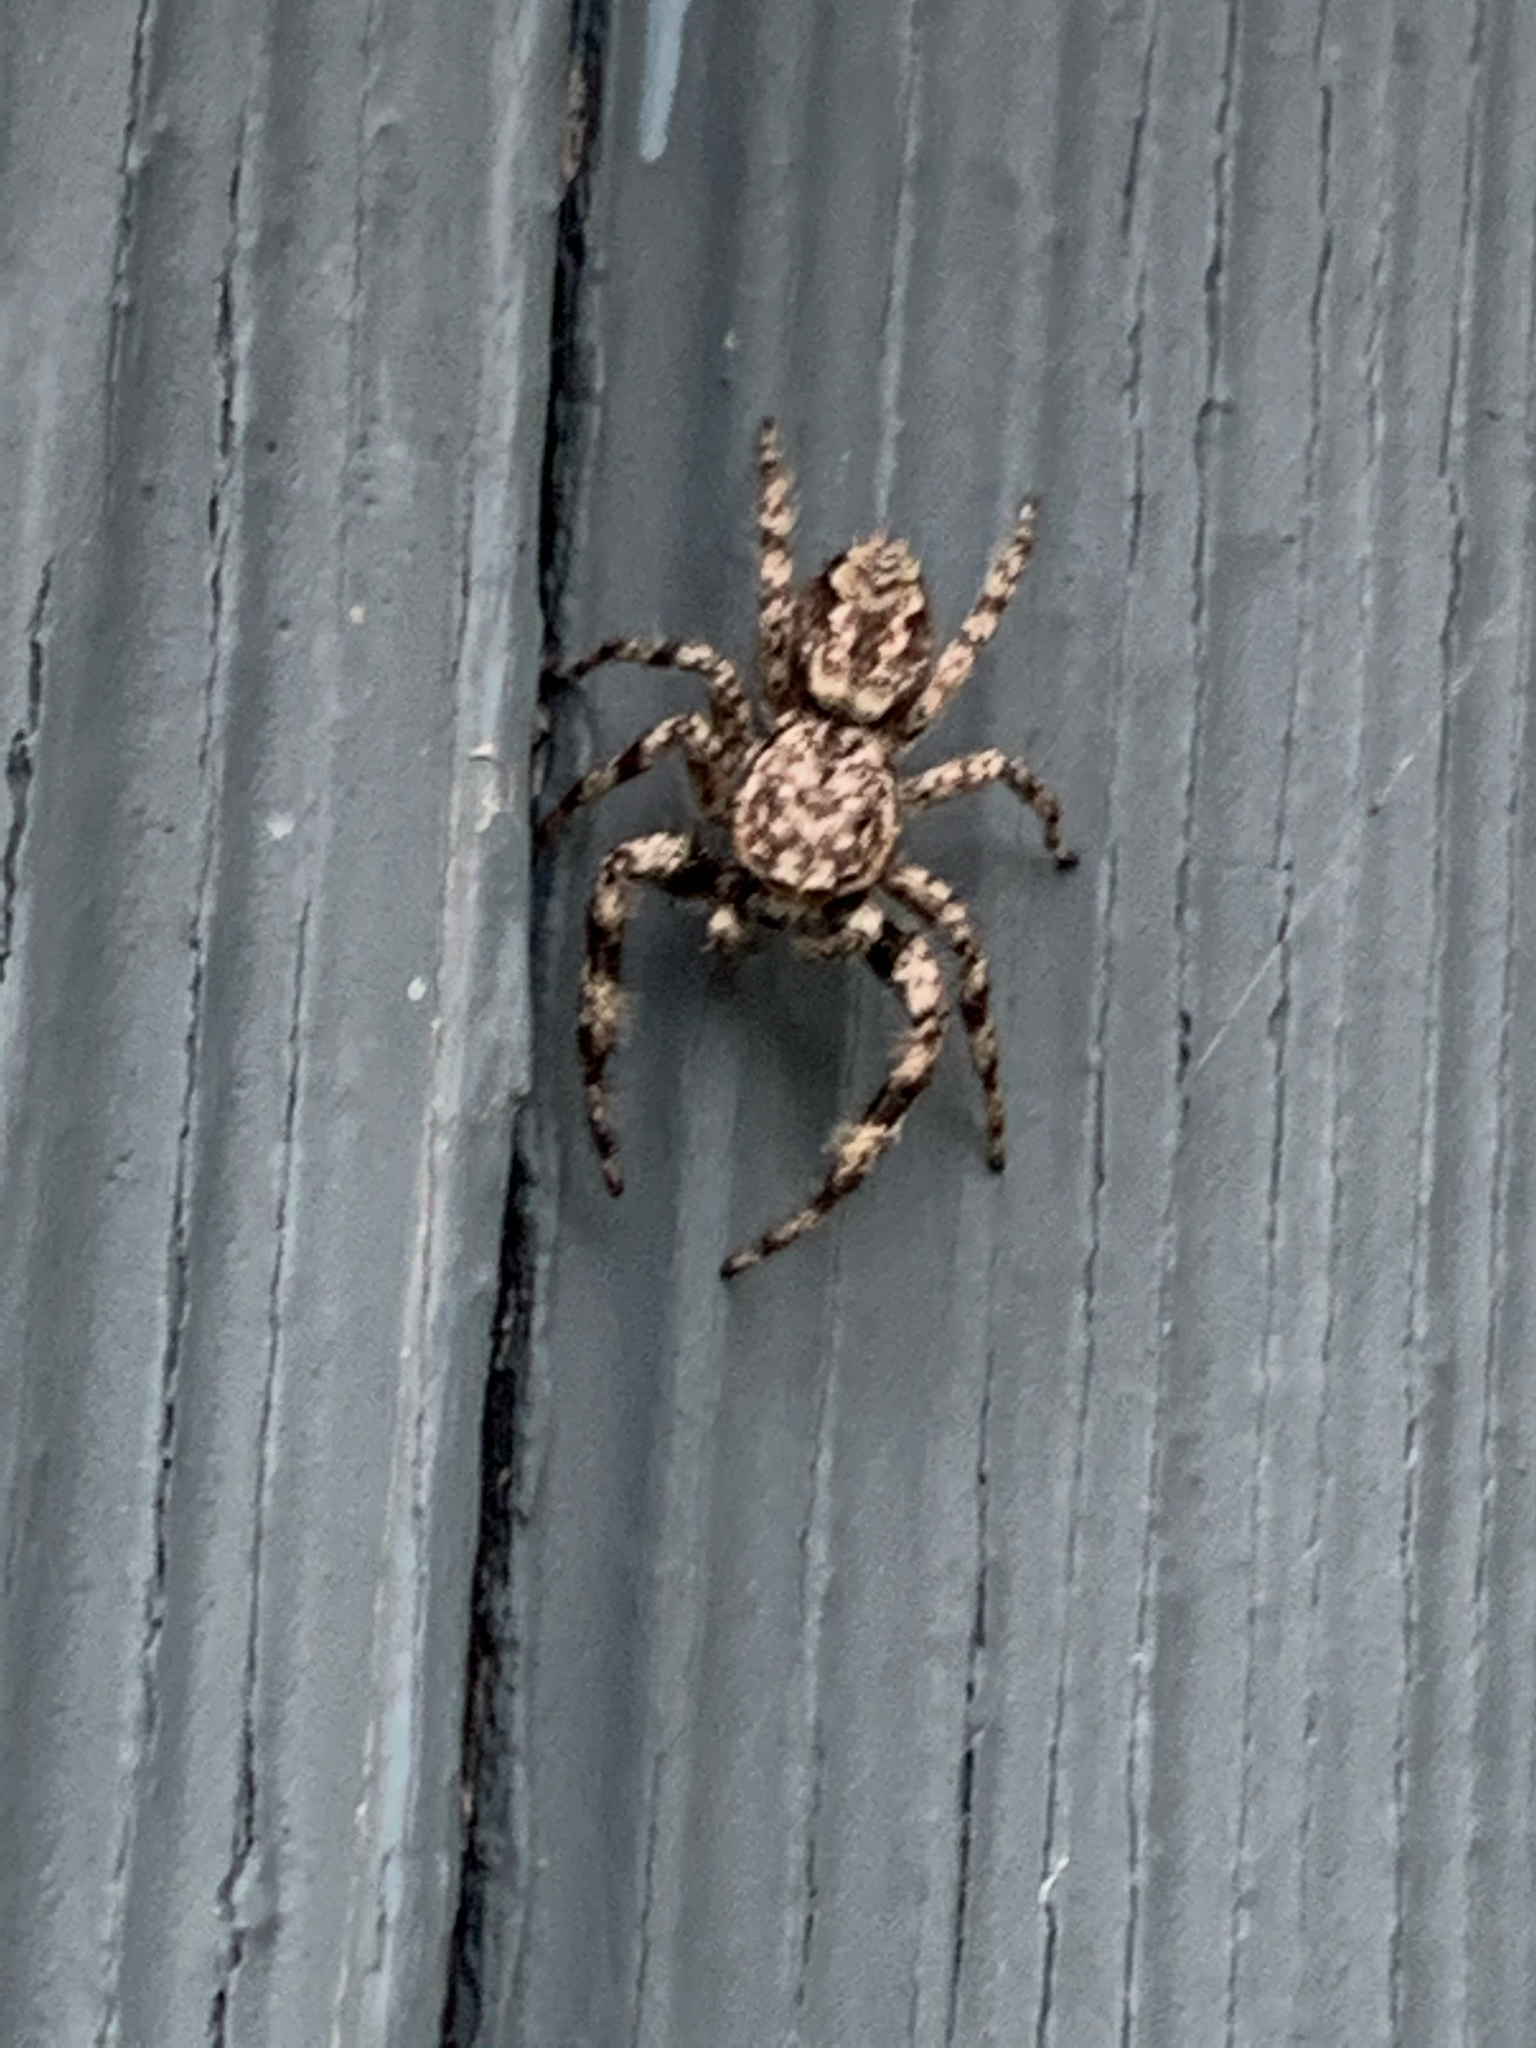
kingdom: Animalia
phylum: Arthropoda
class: Arachnida
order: Araneae
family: Salticidae
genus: Platycryptus
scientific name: Platycryptus undatus
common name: Tan jumping spider
